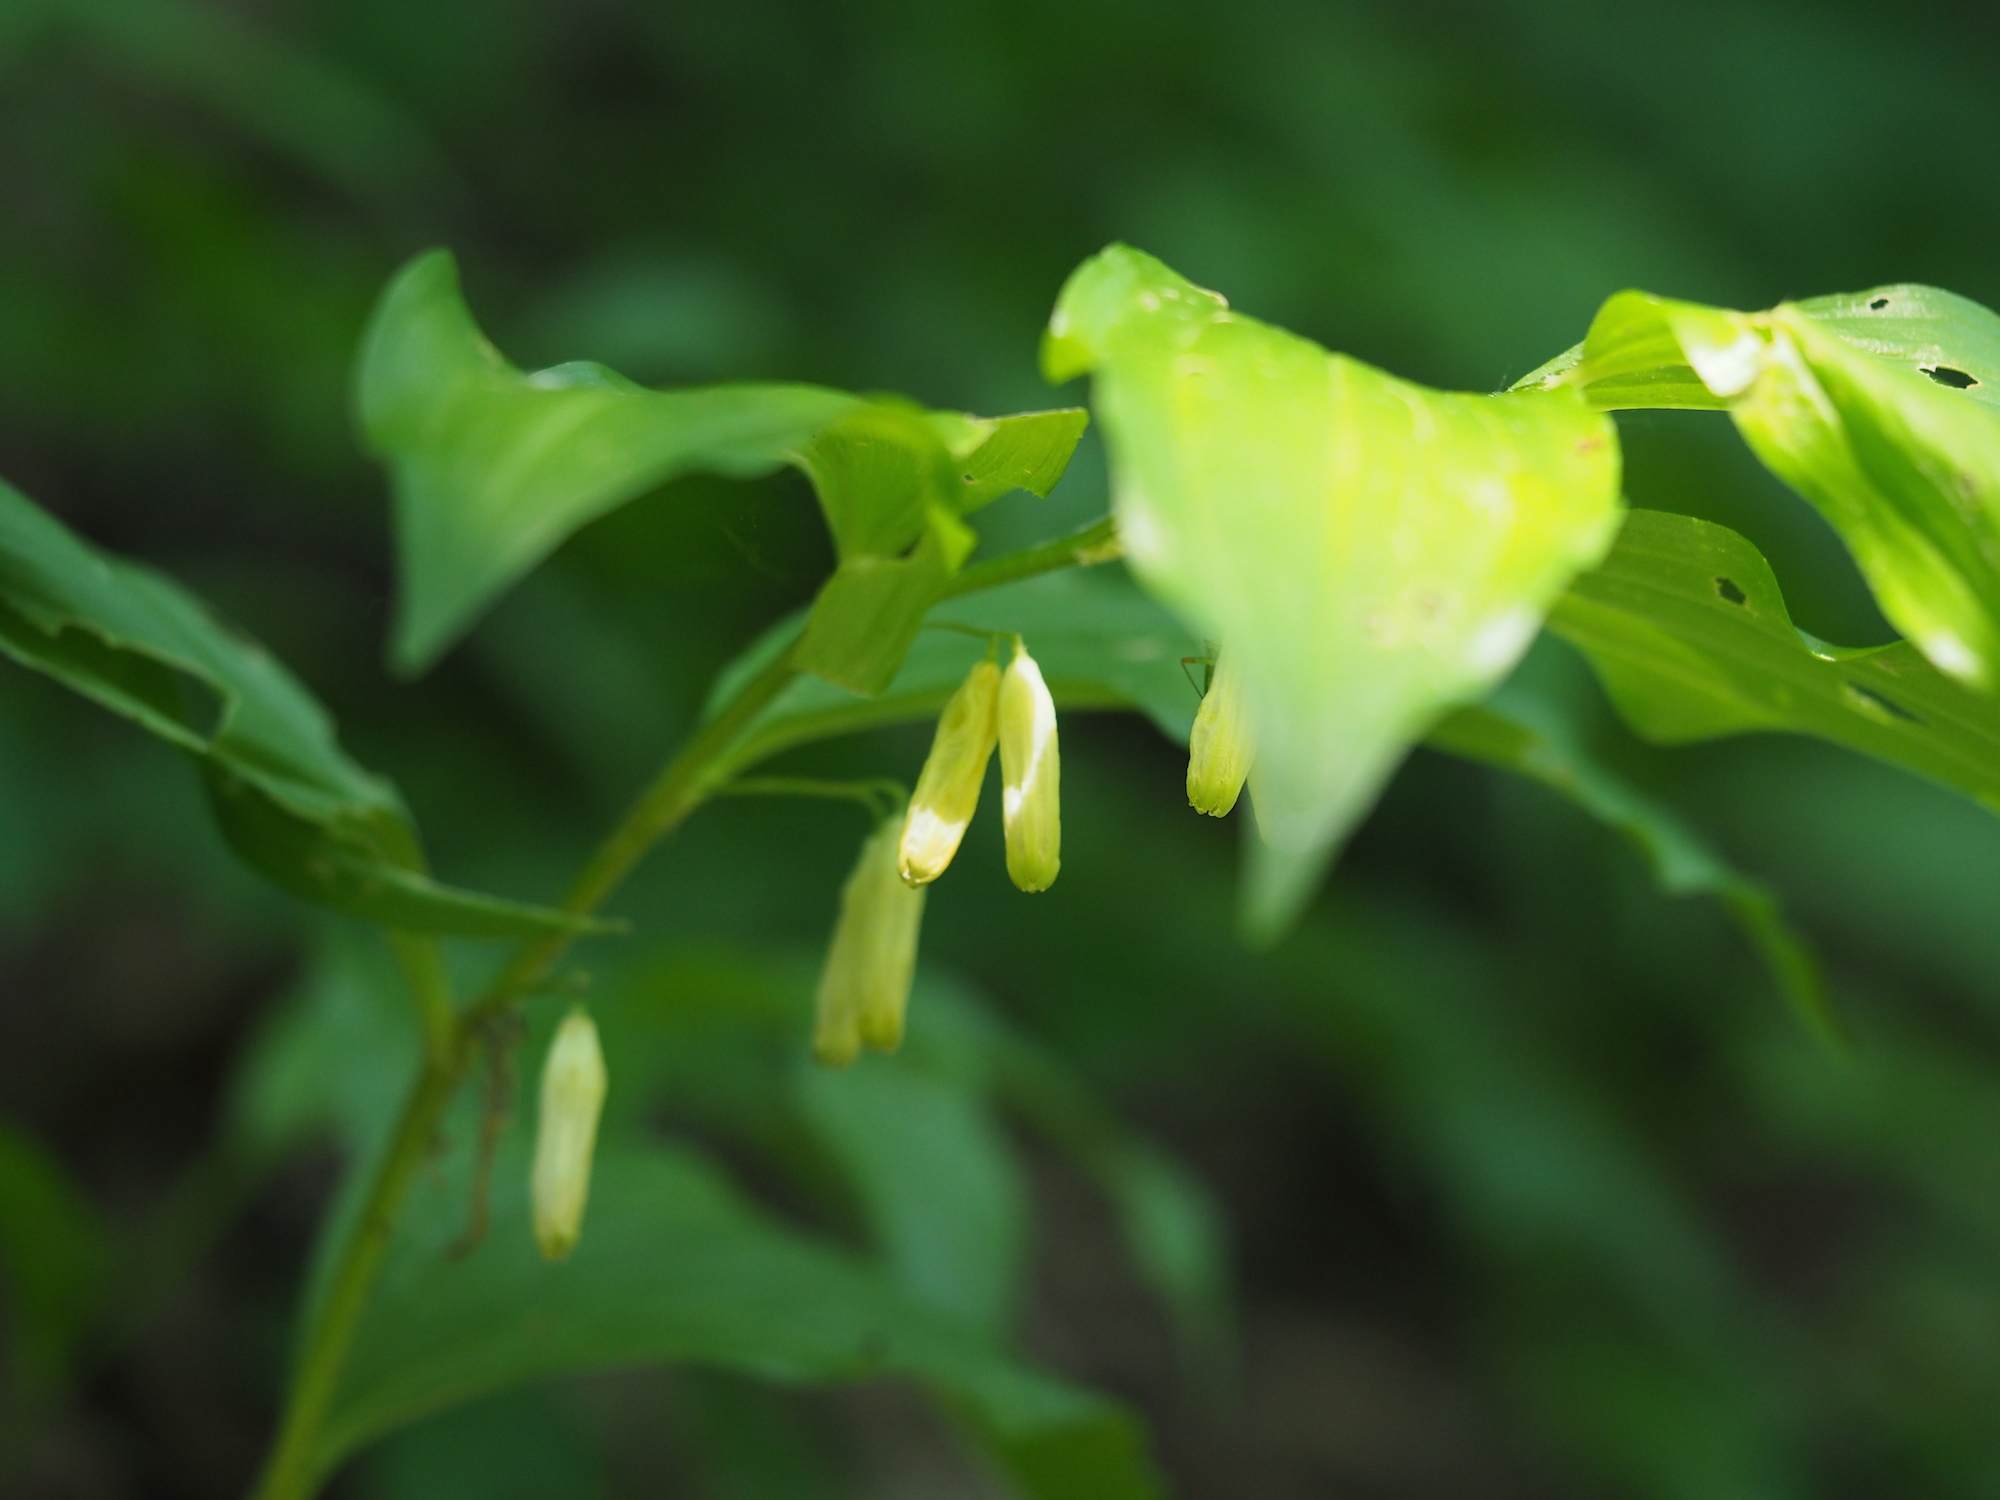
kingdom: Plantae
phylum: Tracheophyta
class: Liliopsida
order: Asparagales
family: Asparagaceae
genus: Polygonatum
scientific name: Polygonatum latifolium
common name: Broadleaf solomon's seal
